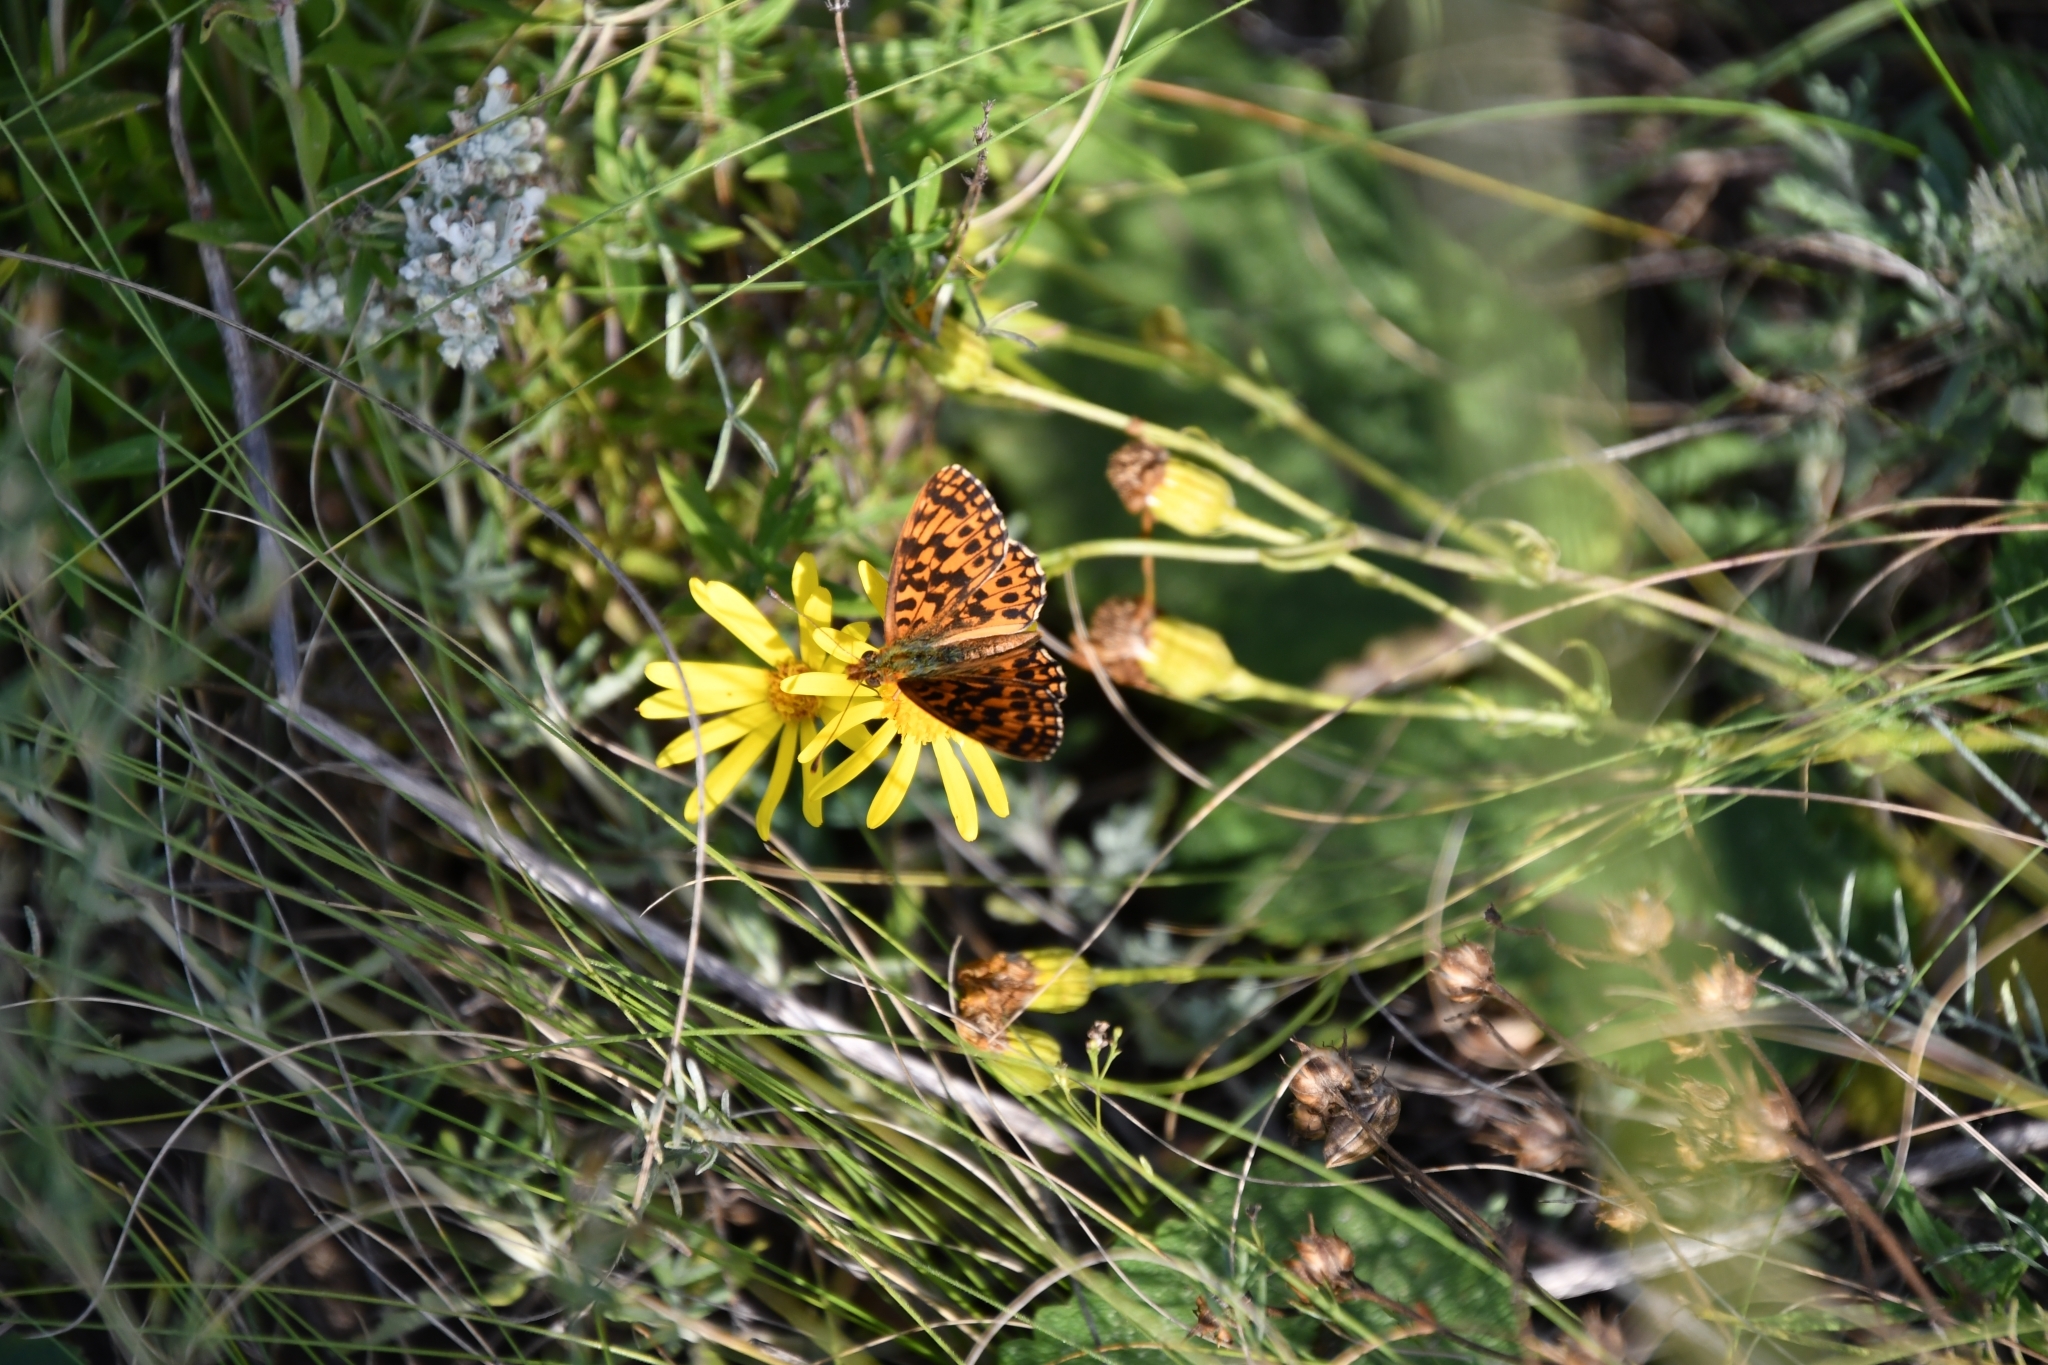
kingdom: Animalia
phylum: Arthropoda
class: Insecta
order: Lepidoptera
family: Nymphalidae
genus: Boloria
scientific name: Boloria dia
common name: Weaver's fritillary
